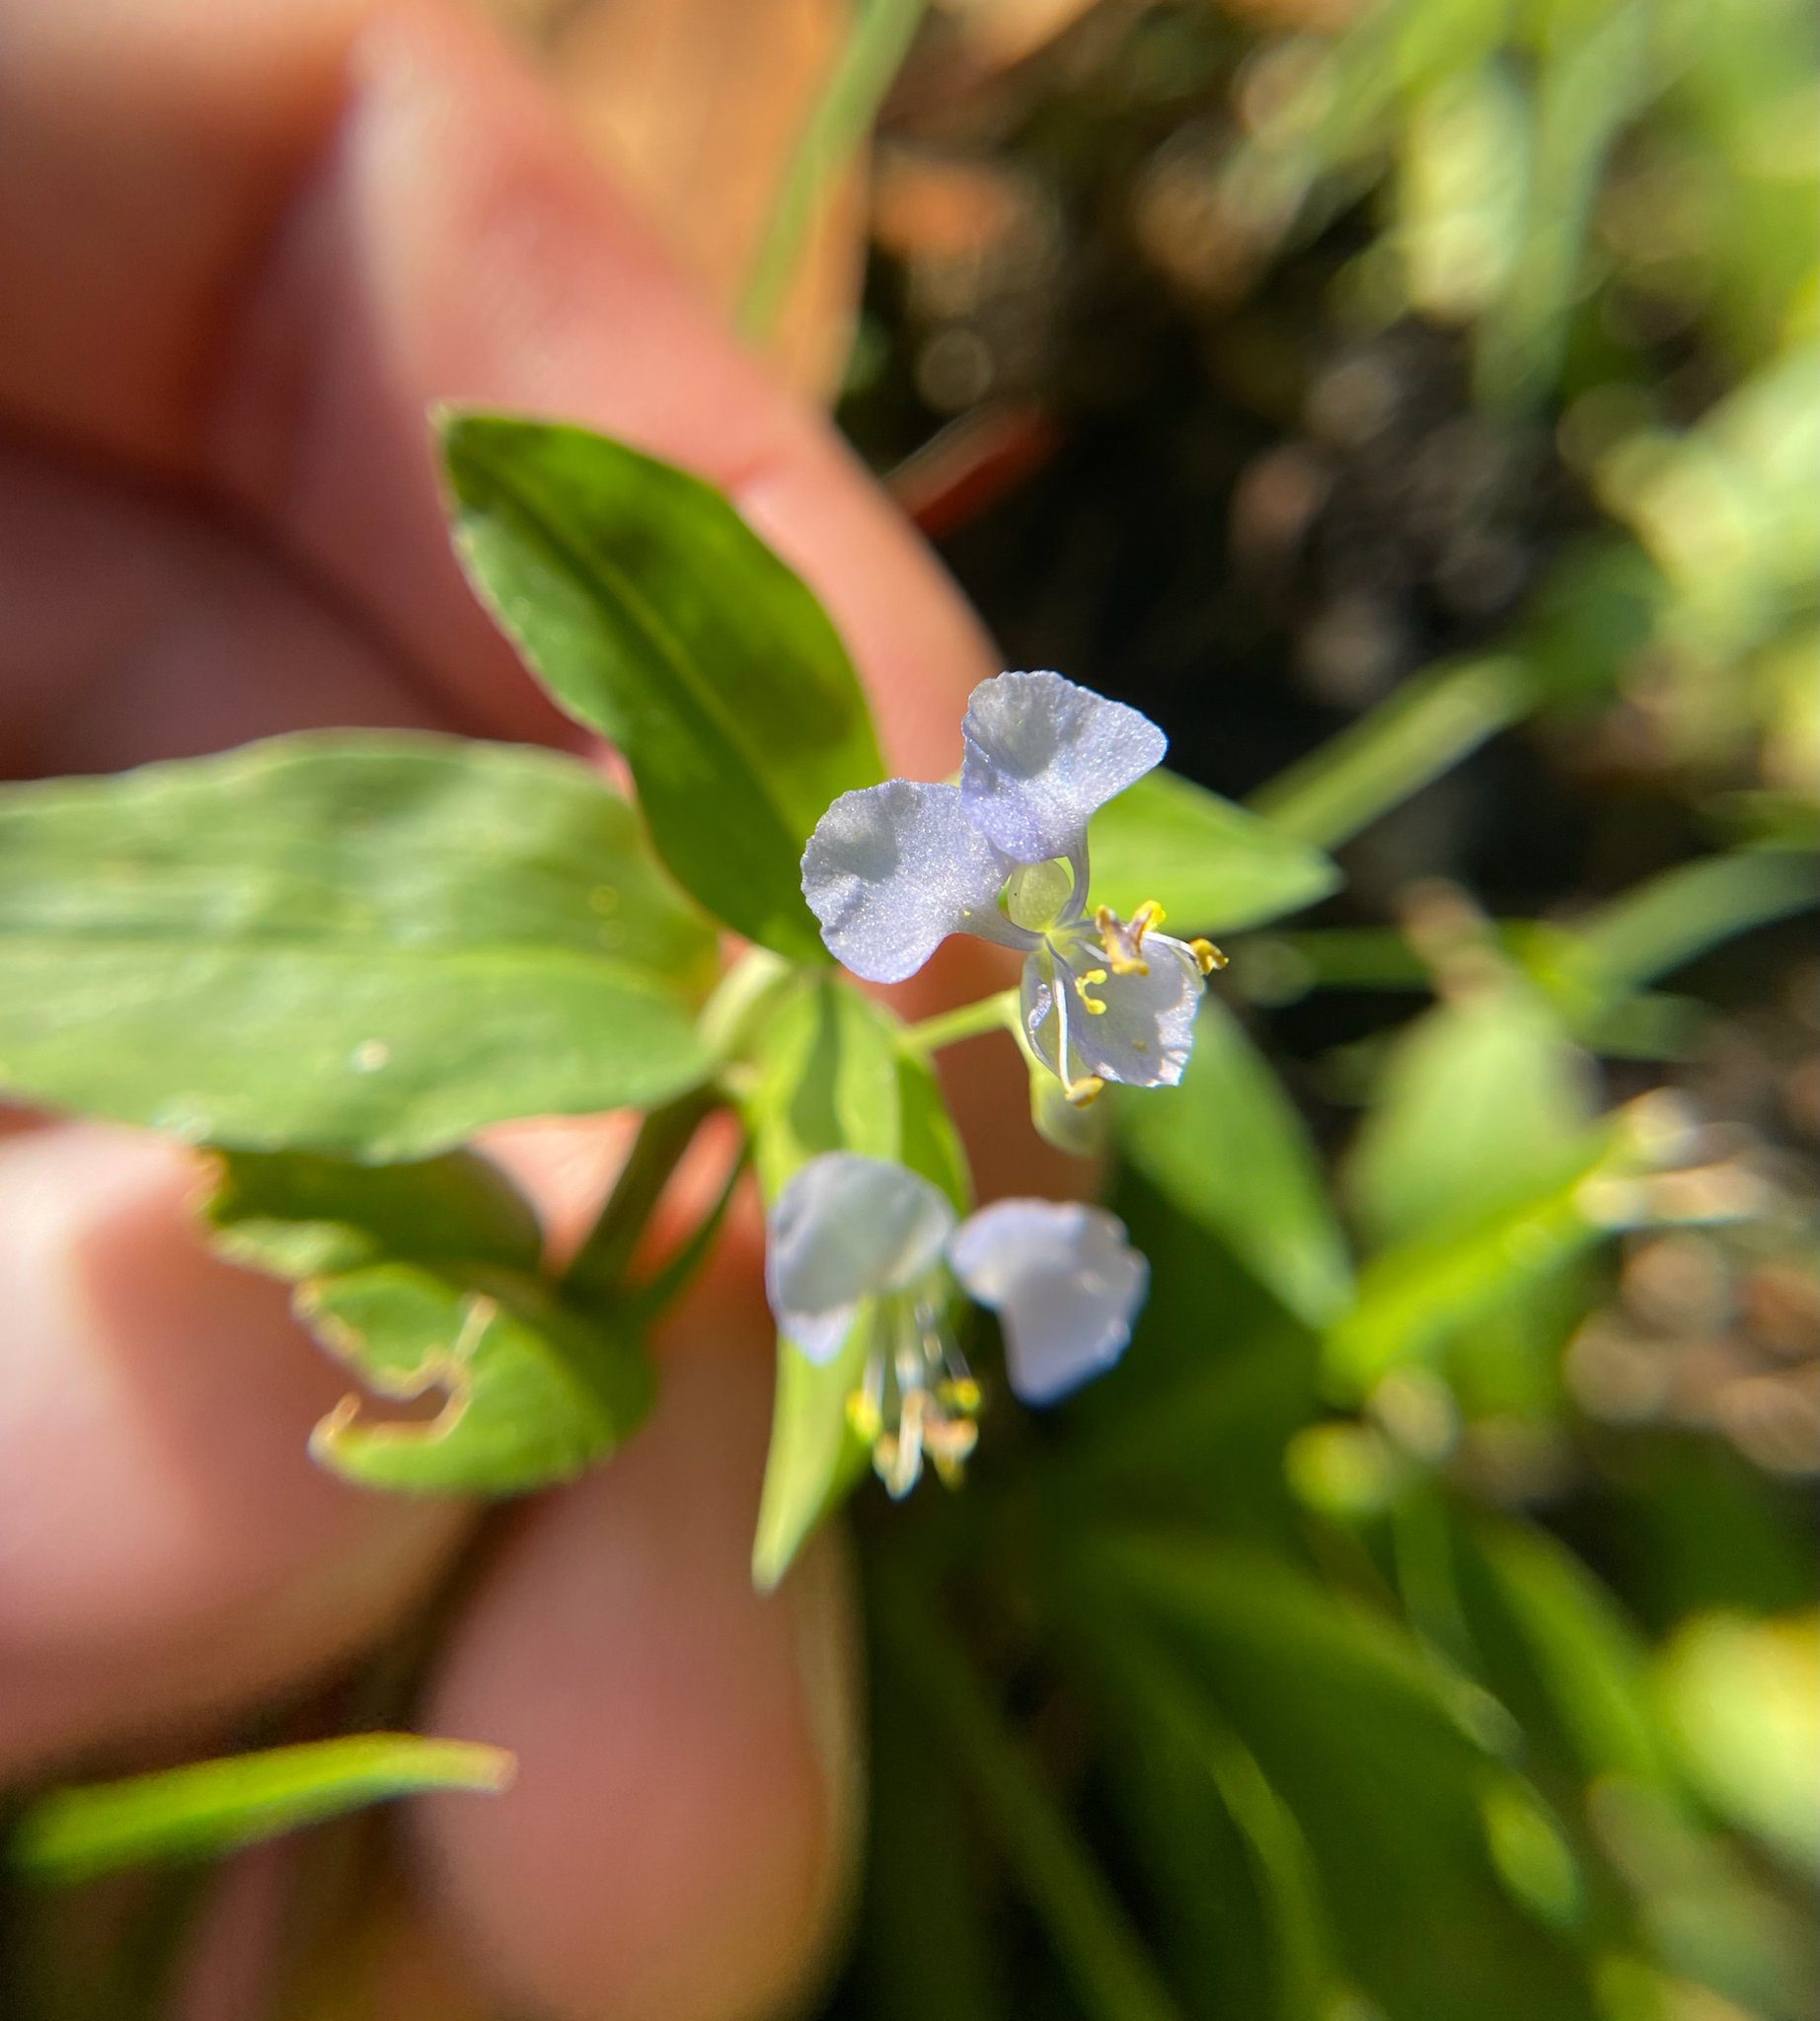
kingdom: Plantae
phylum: Tracheophyta
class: Liliopsida
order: Commelinales
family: Commelinaceae
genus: Commelina
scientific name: Commelina diffusa
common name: Climbing dayflower
